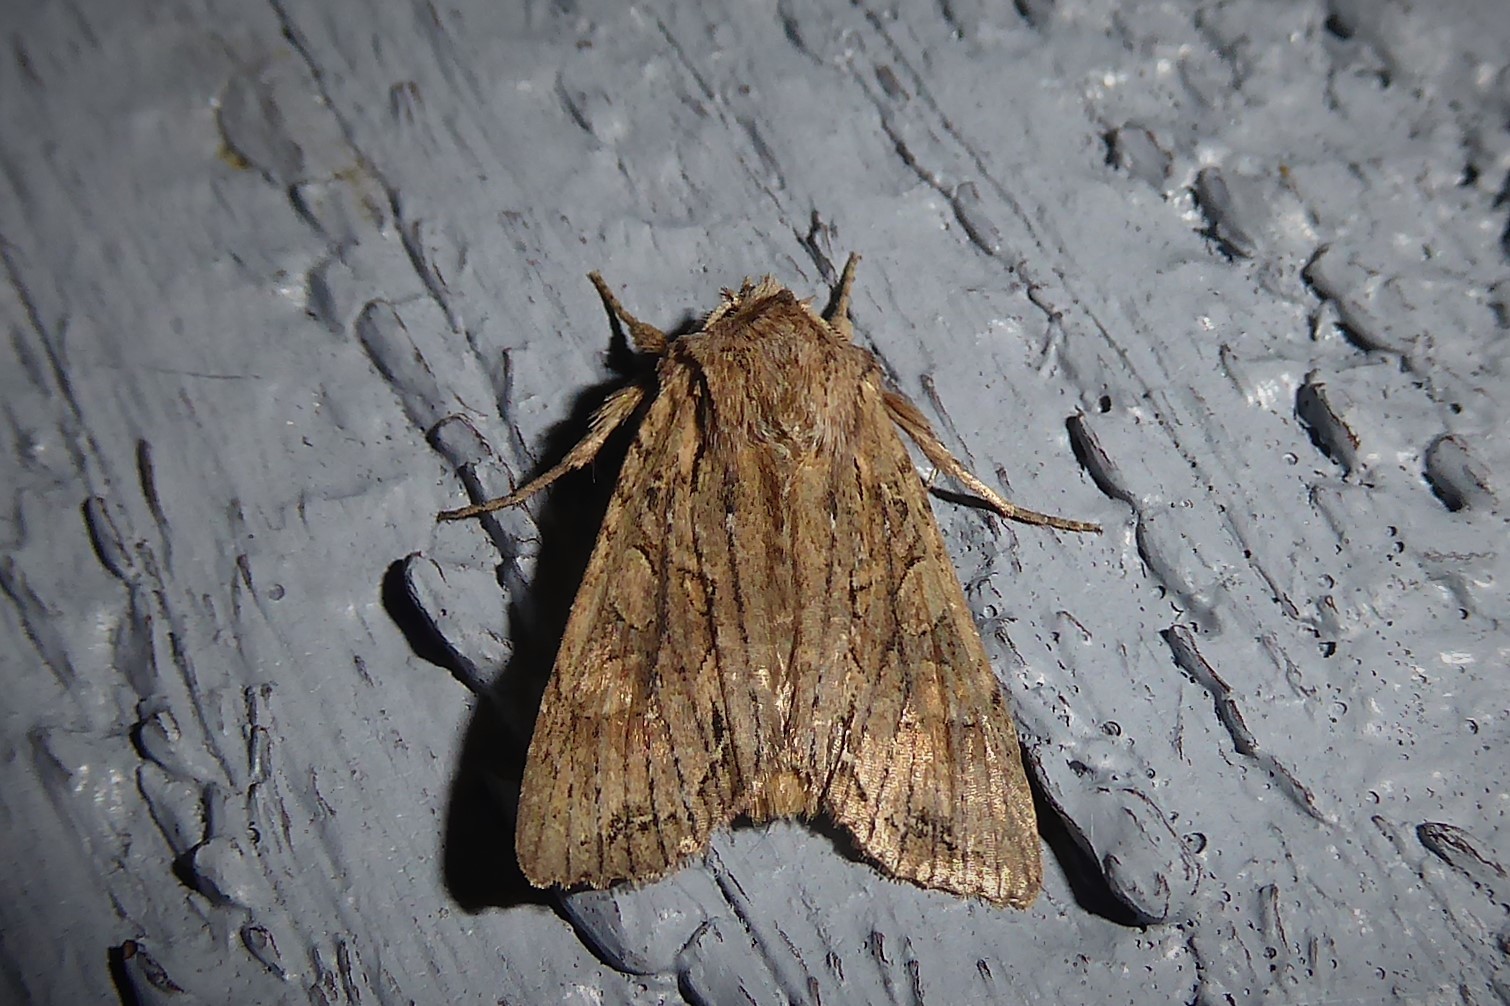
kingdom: Animalia
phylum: Arthropoda
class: Insecta
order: Lepidoptera
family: Noctuidae
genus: Ichneutica
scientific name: Ichneutica
